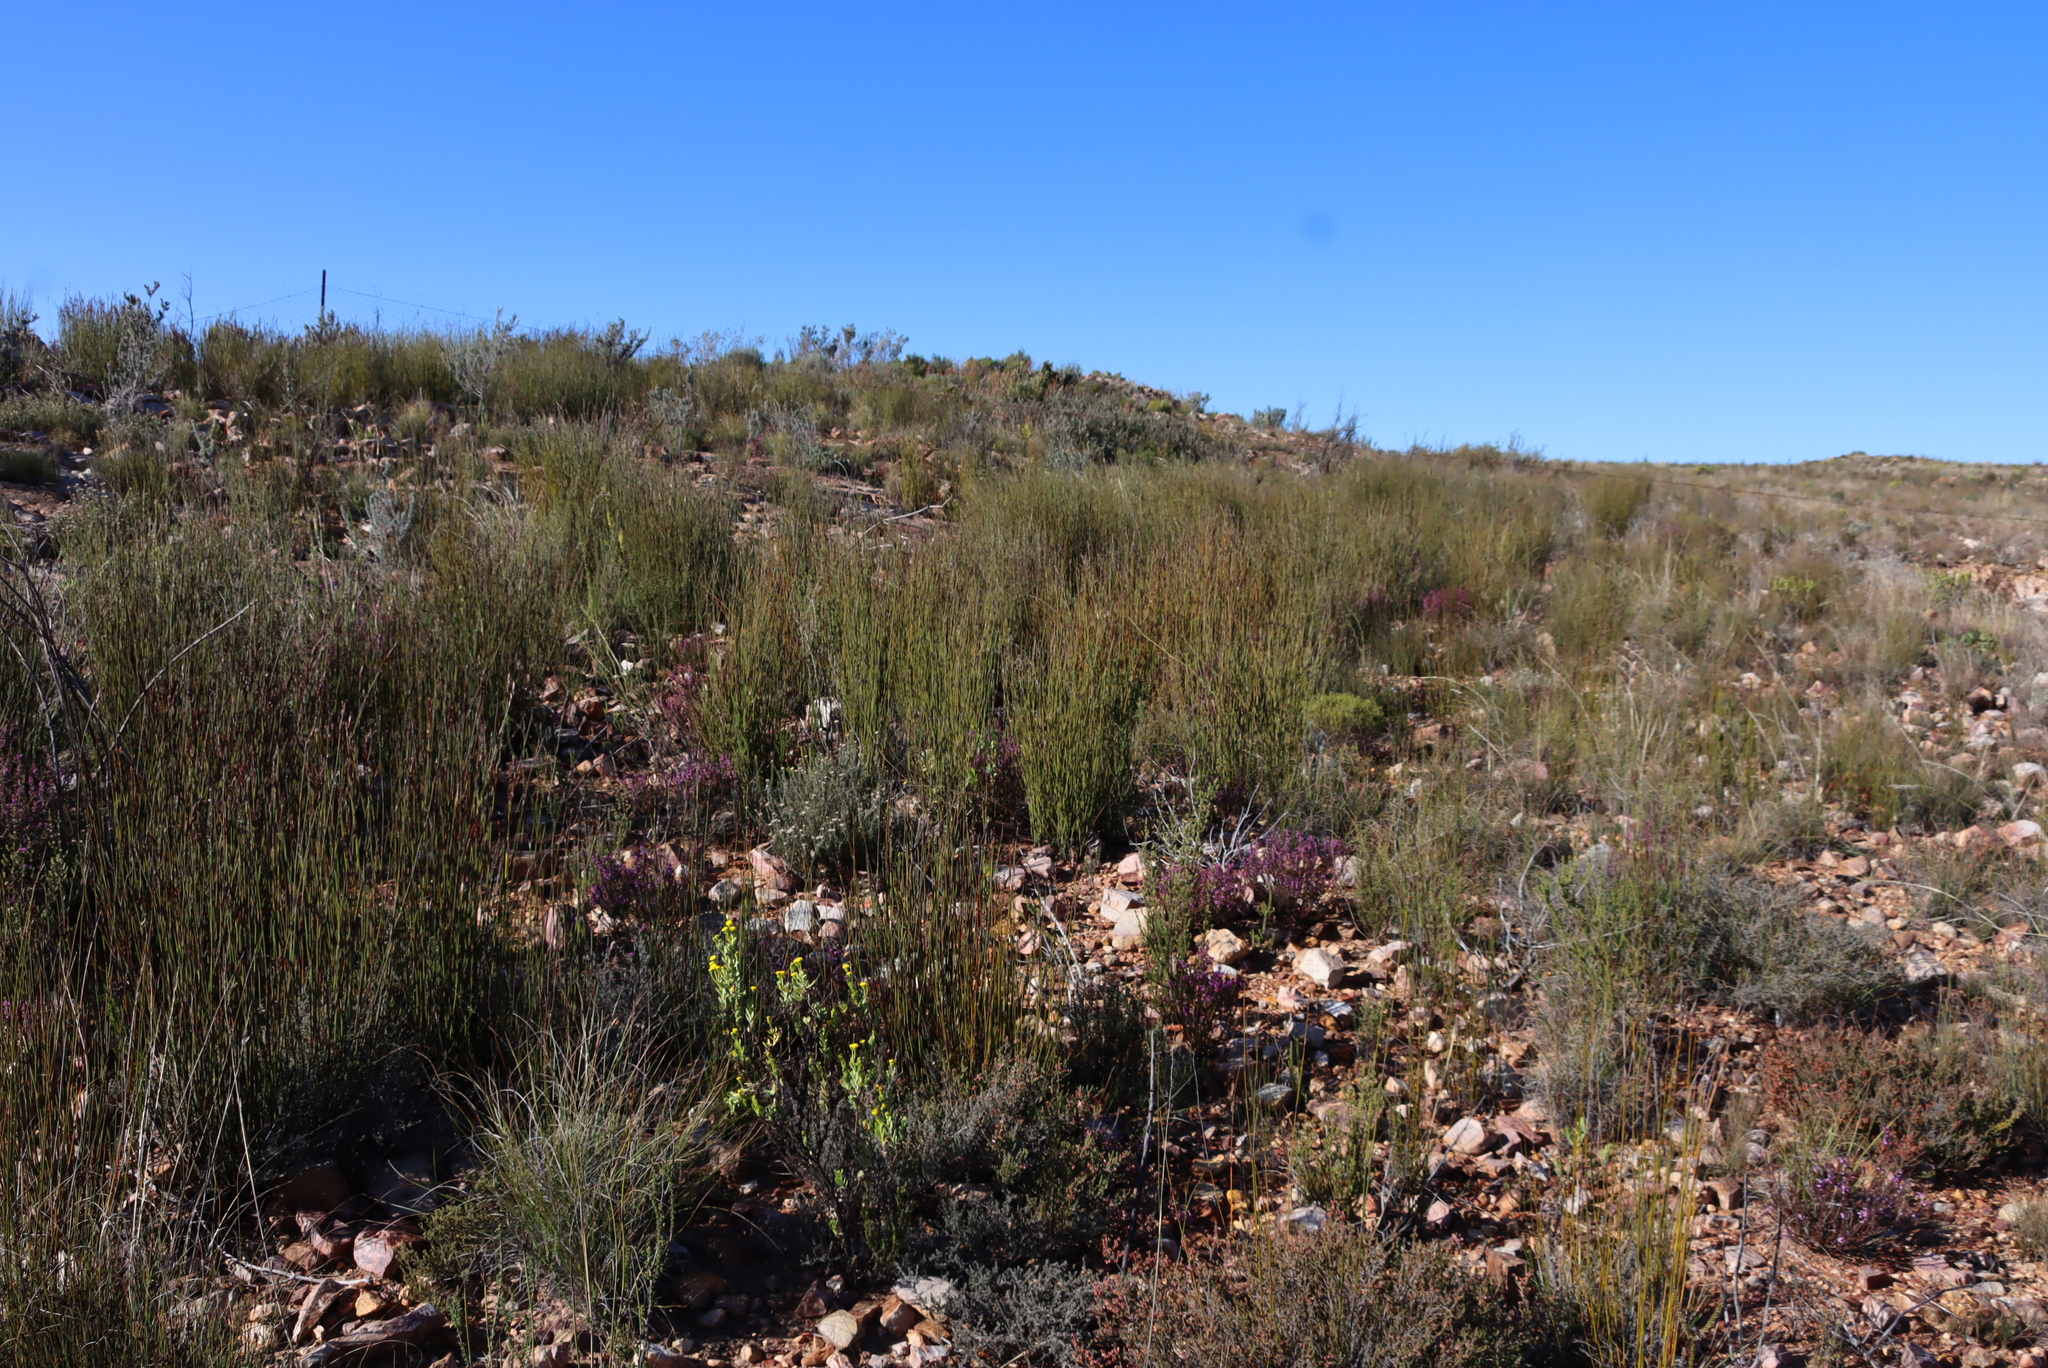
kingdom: Plantae
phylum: Tracheophyta
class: Liliopsida
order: Poales
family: Restionaceae
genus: Cannomois
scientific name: Cannomois scirpoides
